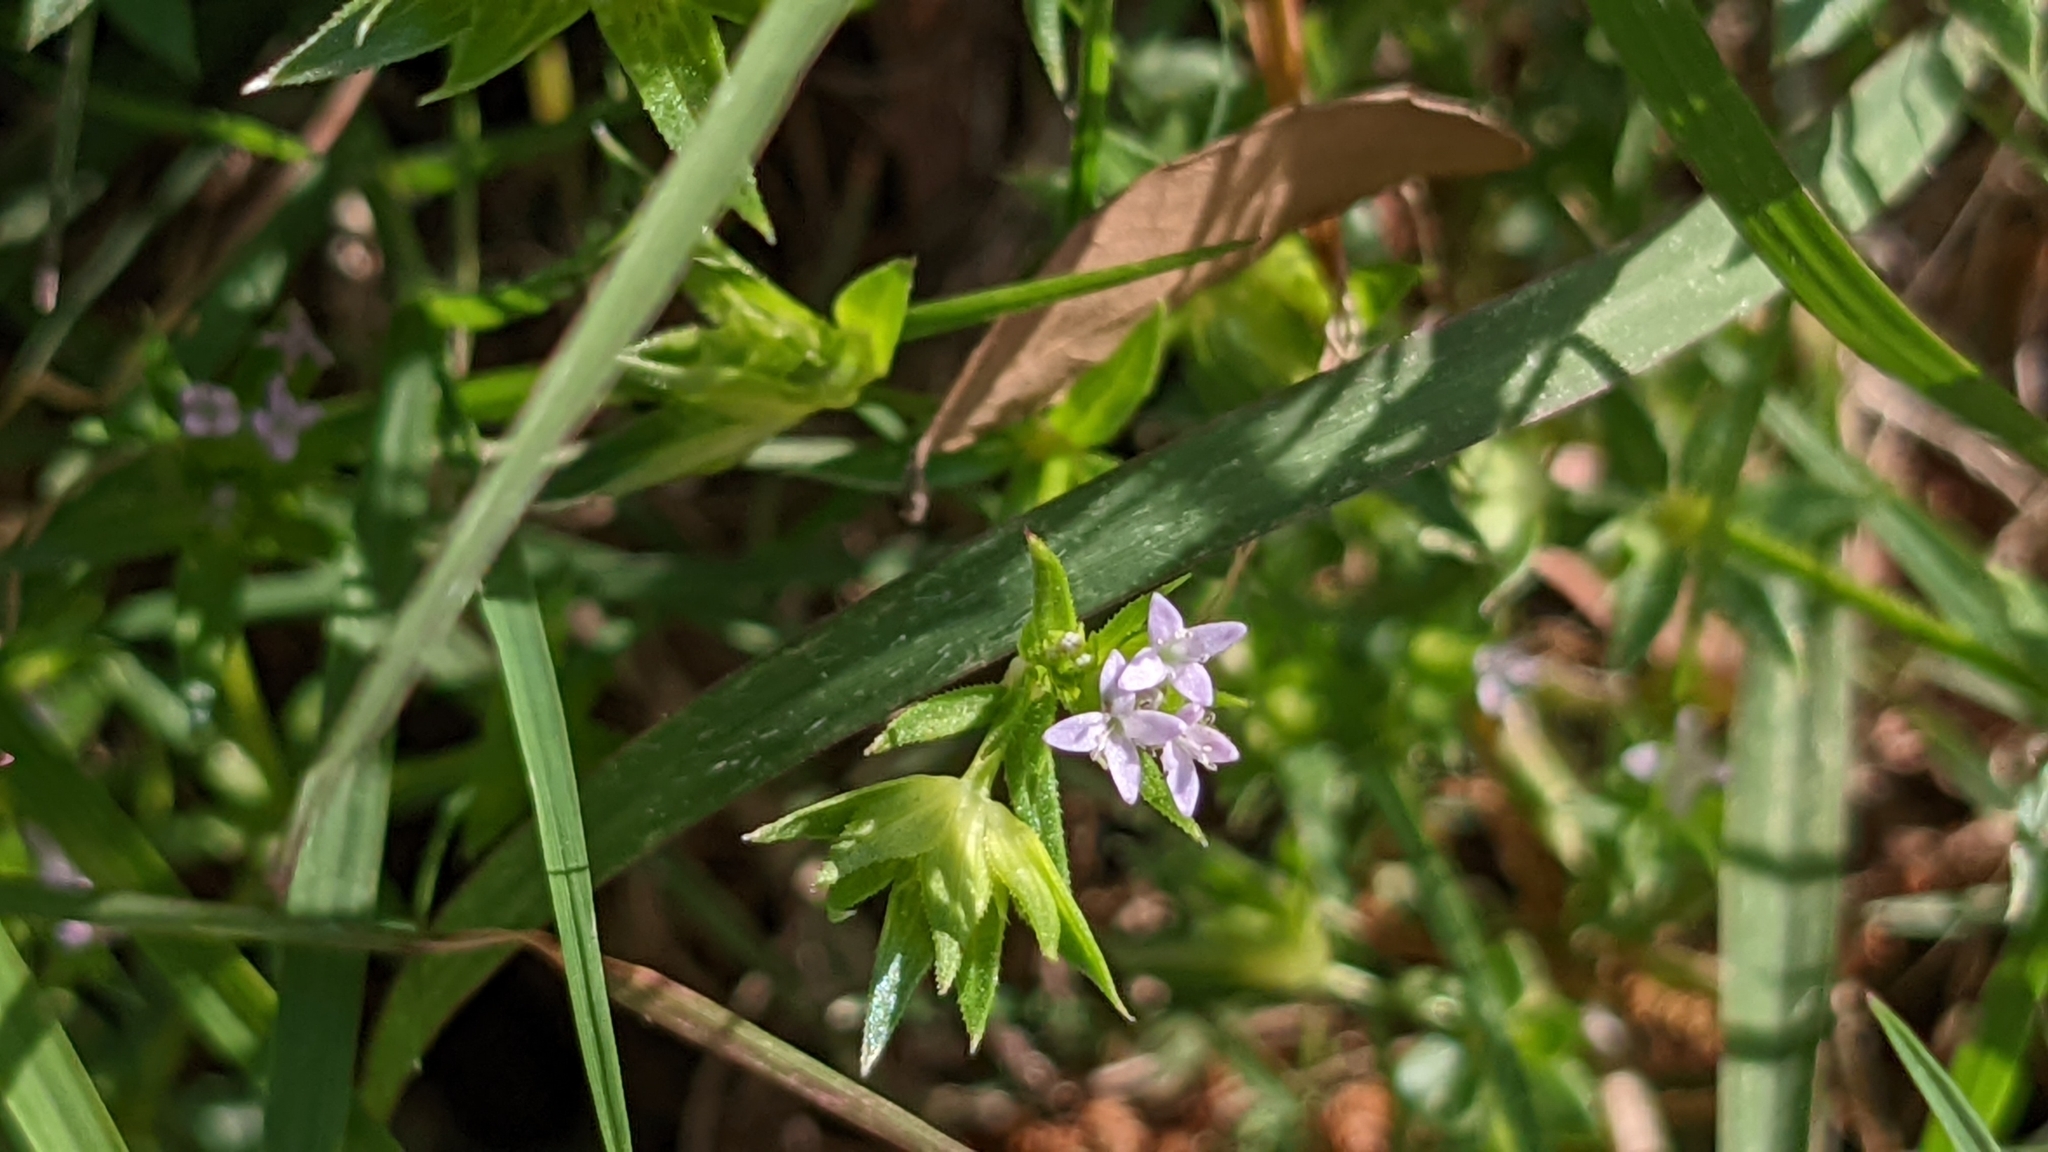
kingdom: Plantae
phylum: Tracheophyta
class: Magnoliopsida
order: Gentianales
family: Rubiaceae
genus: Sherardia
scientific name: Sherardia arvensis
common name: Field madder
